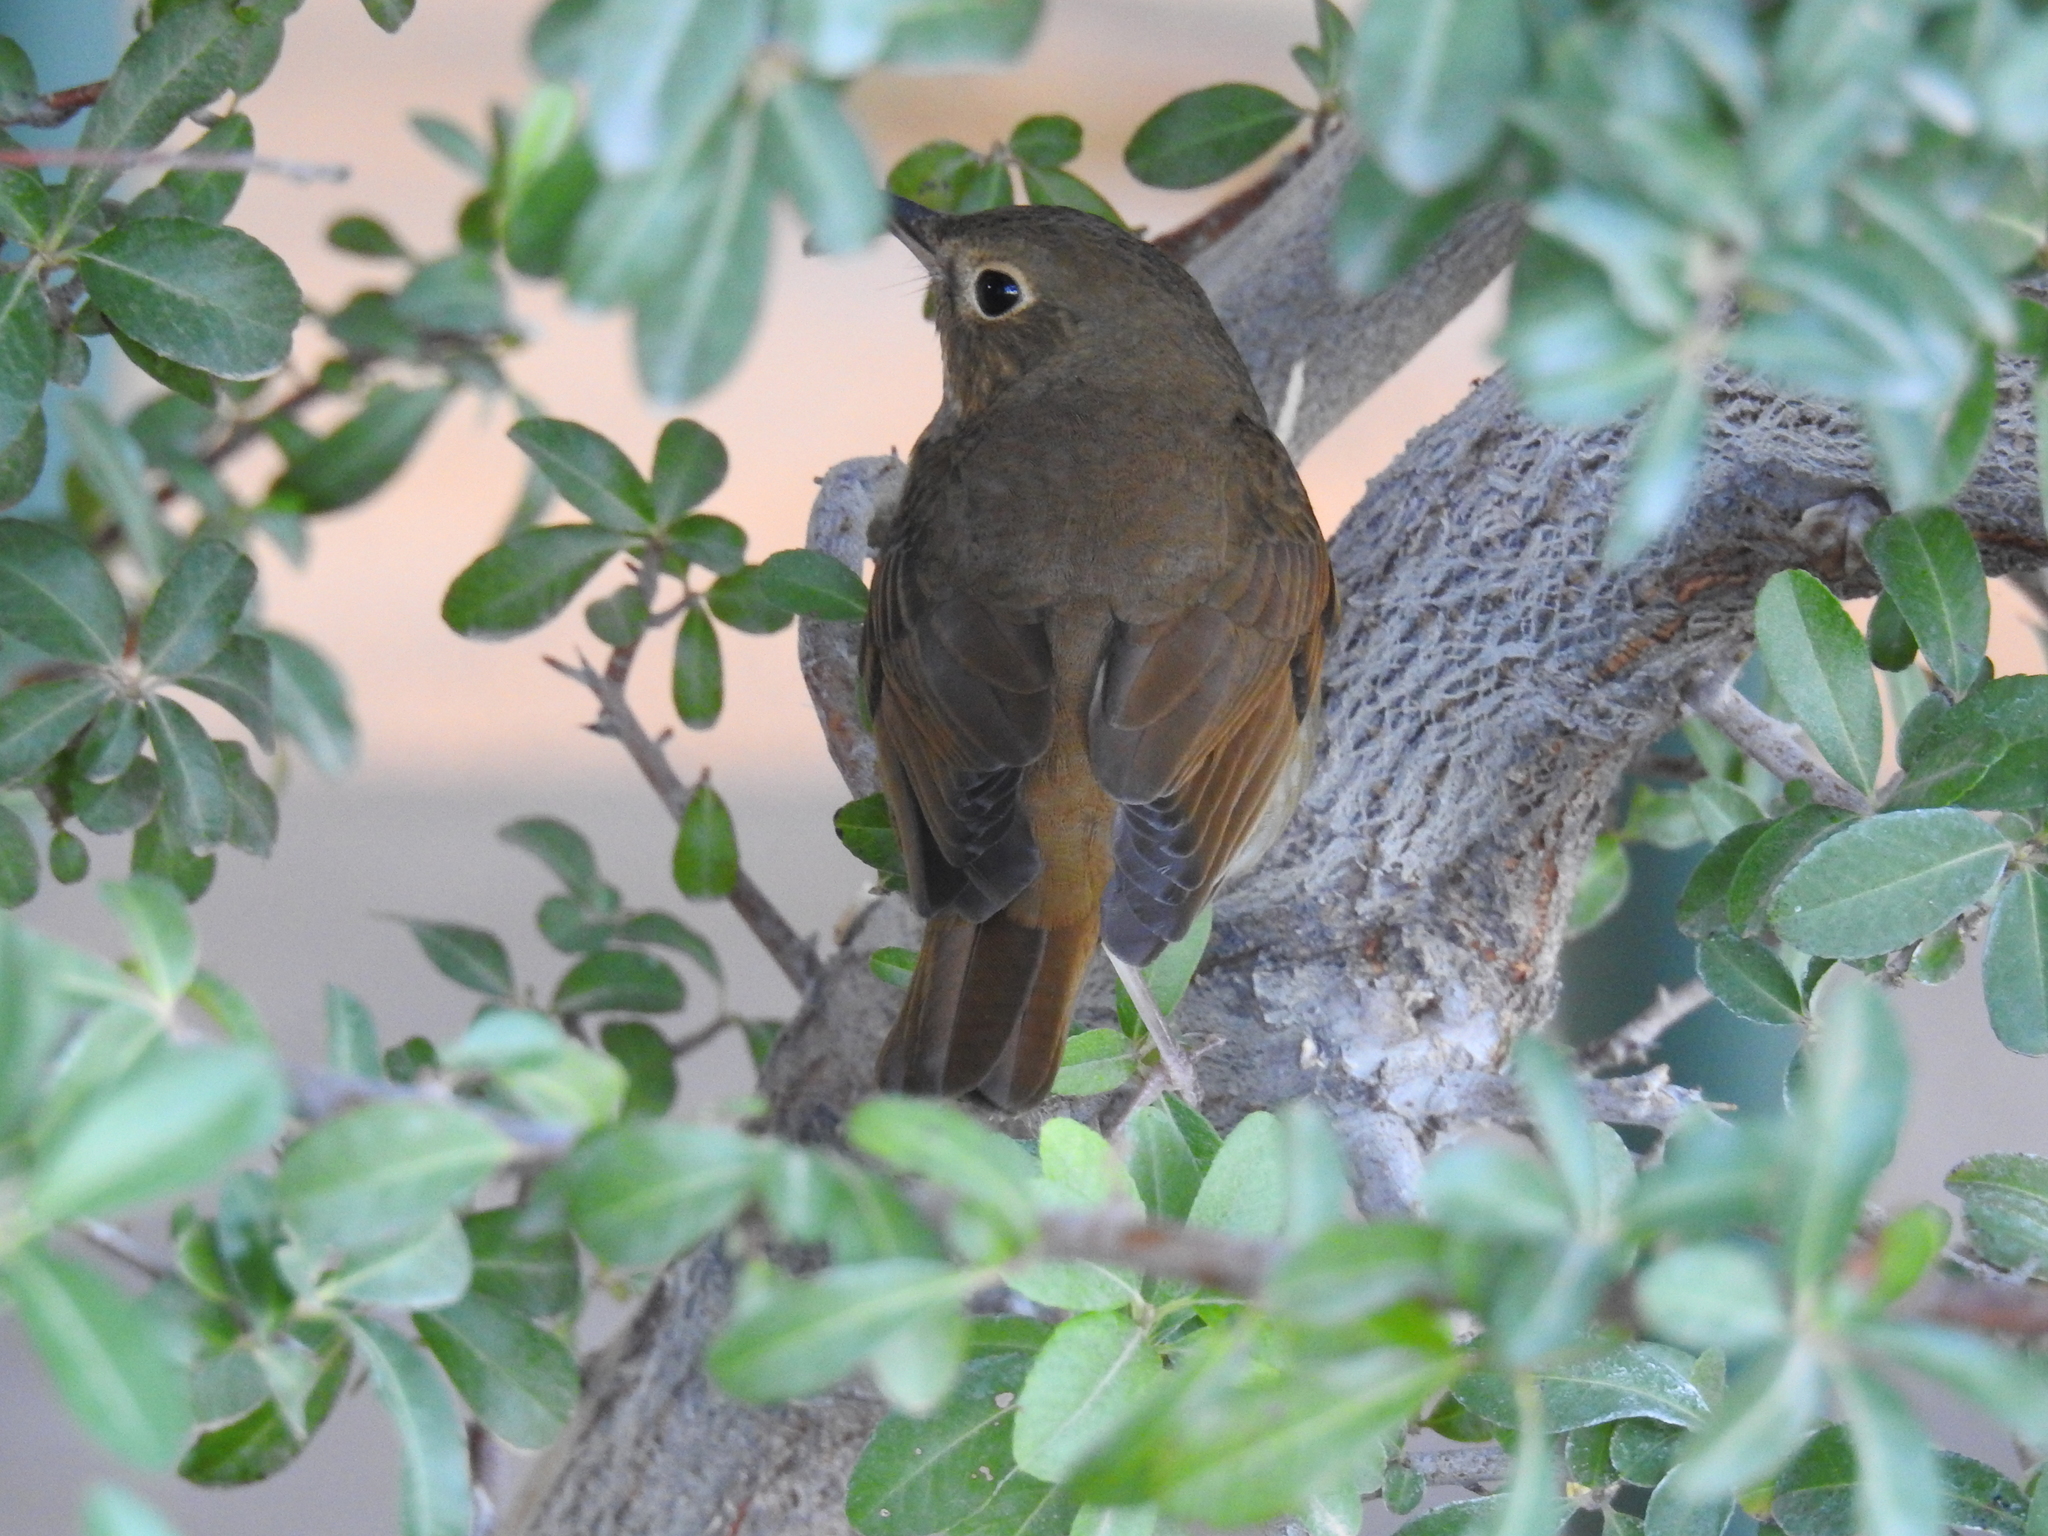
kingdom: Animalia
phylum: Chordata
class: Aves
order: Passeriformes
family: Turdidae
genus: Catharus
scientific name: Catharus guttatus
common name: Hermit thrush
